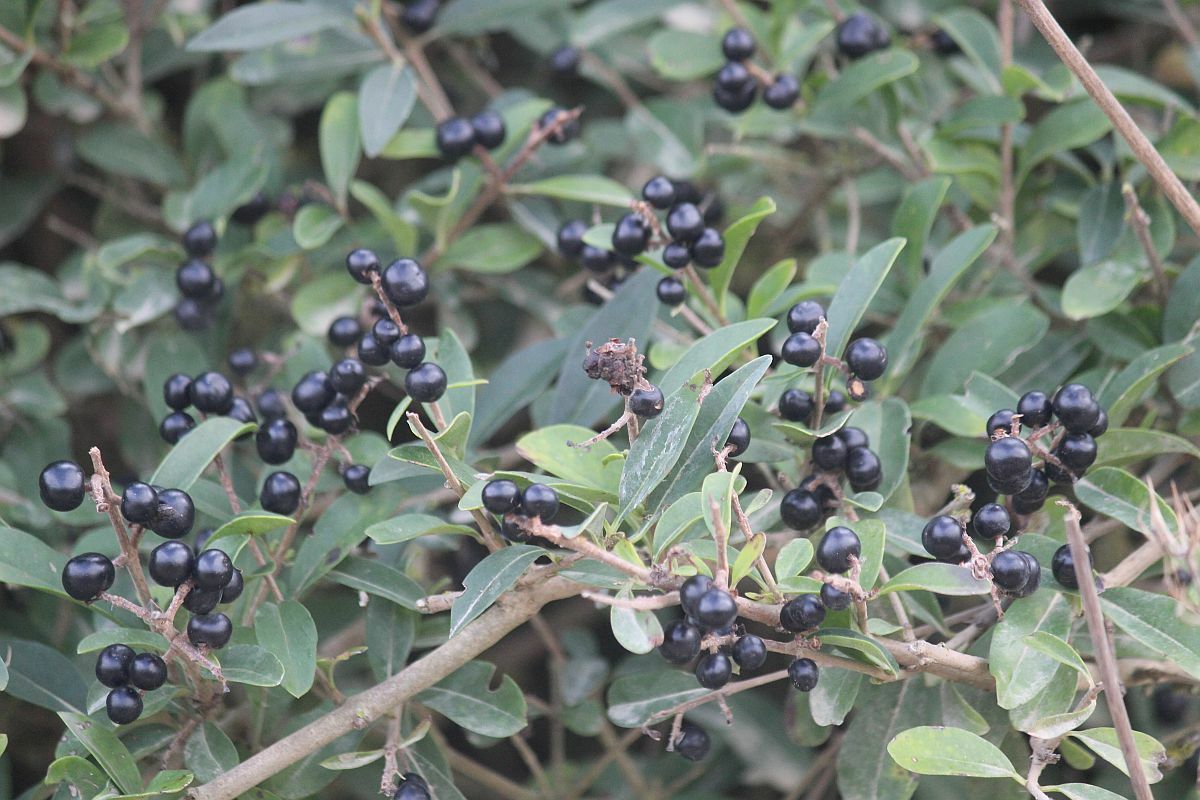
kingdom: Plantae
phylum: Tracheophyta
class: Magnoliopsida
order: Lamiales
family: Oleaceae
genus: Ligustrum
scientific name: Ligustrum vulgare
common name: Wild privet
